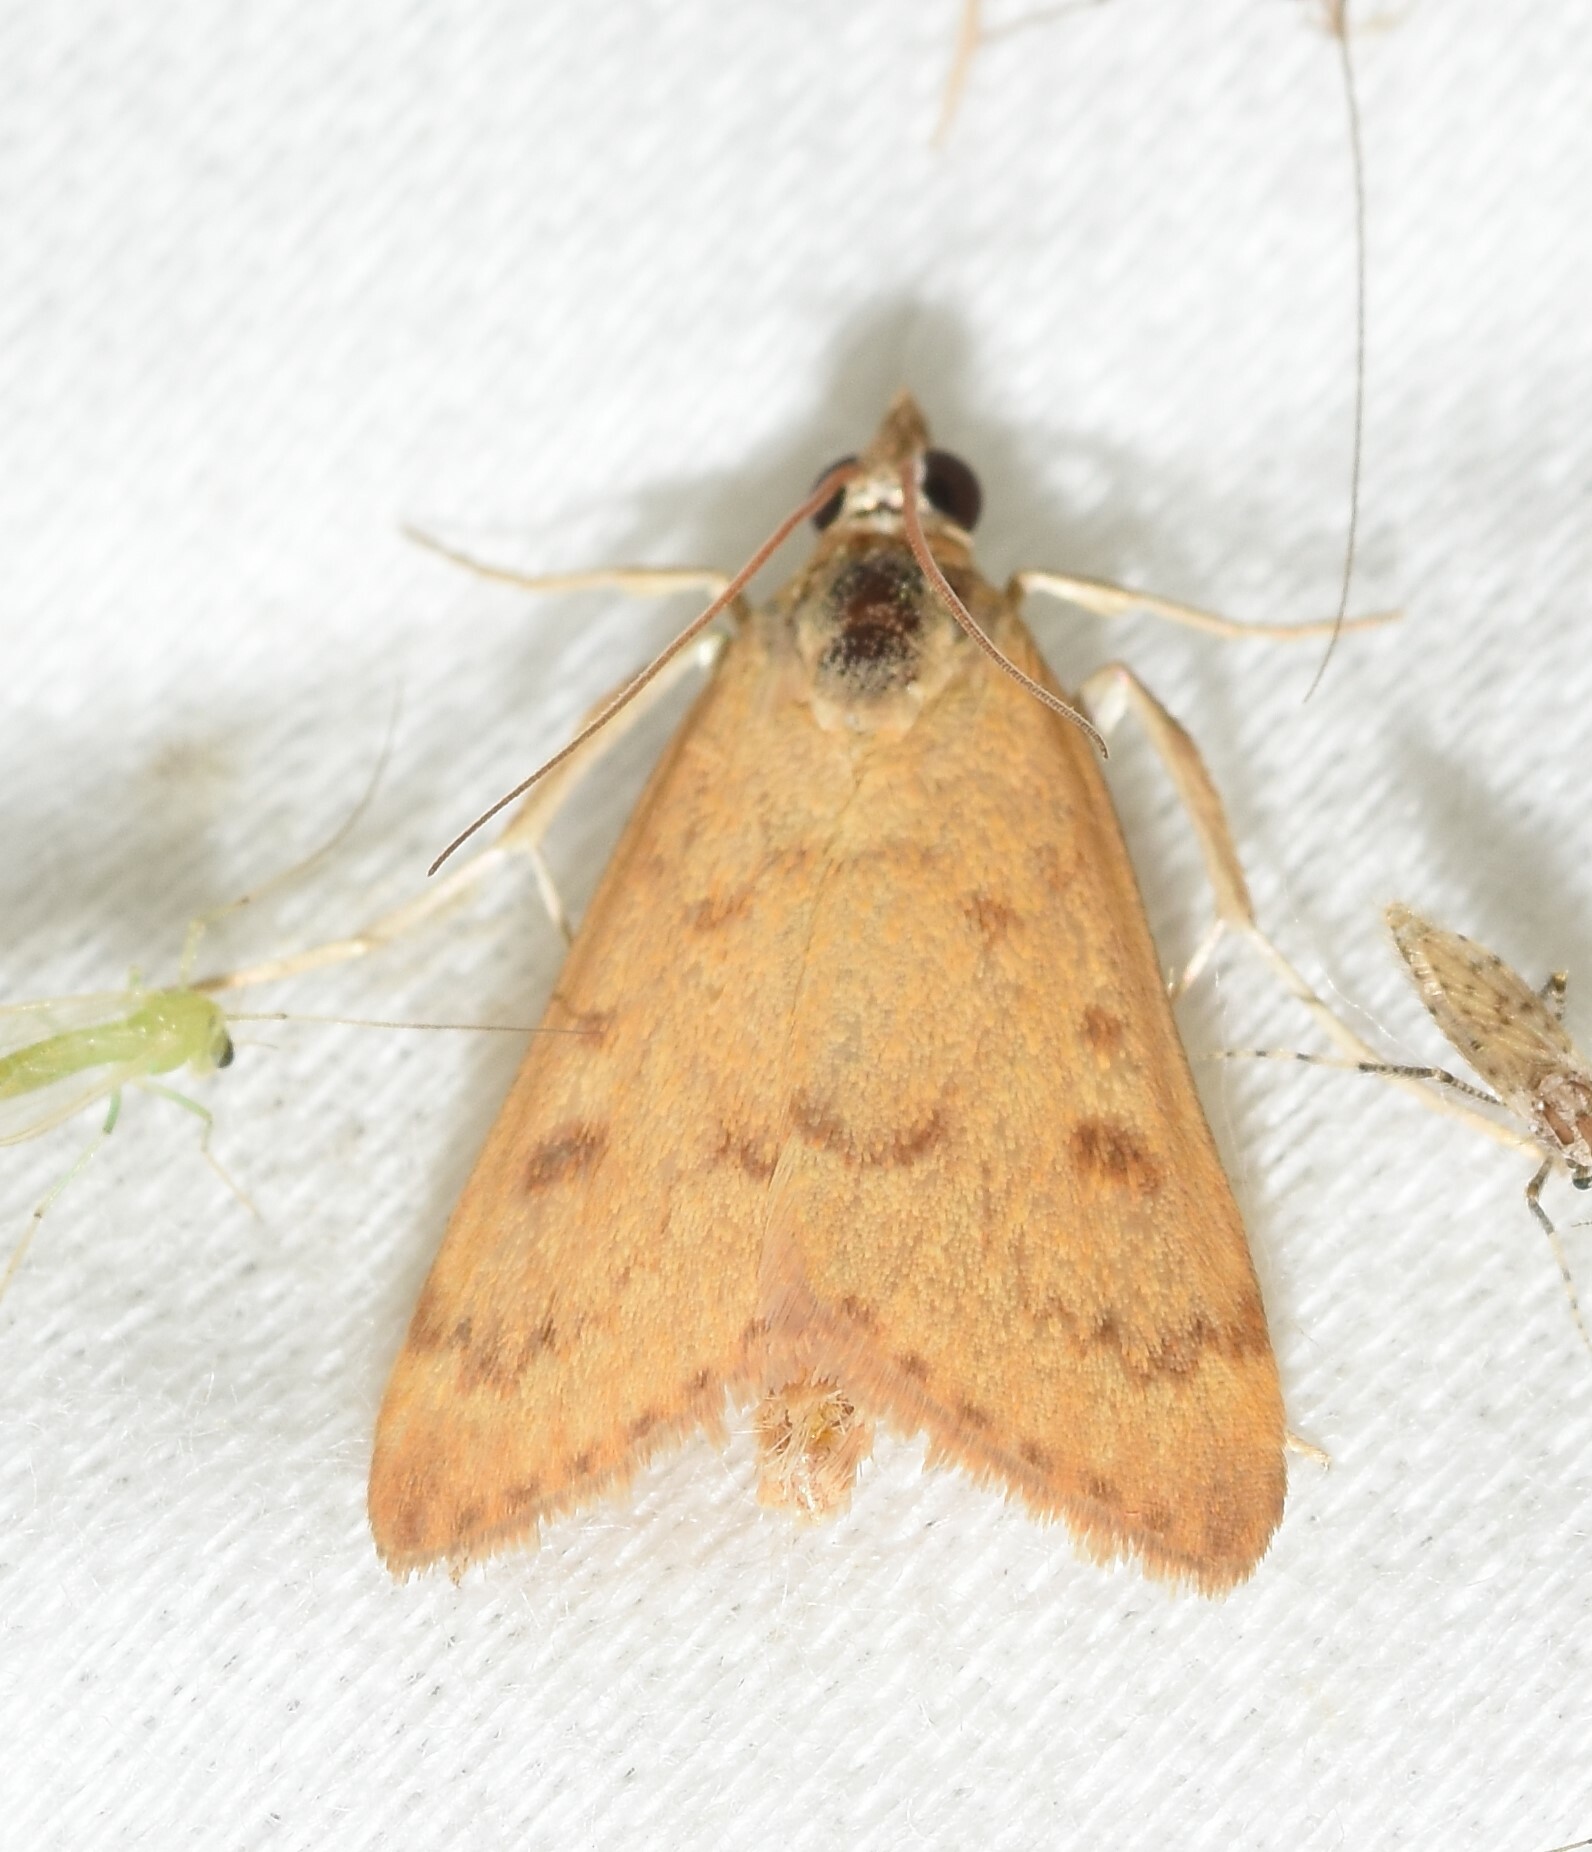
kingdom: Animalia
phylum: Arthropoda
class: Insecta
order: Lepidoptera
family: Crambidae
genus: Achyra
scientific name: Achyra rantalis
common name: Garden webworm
